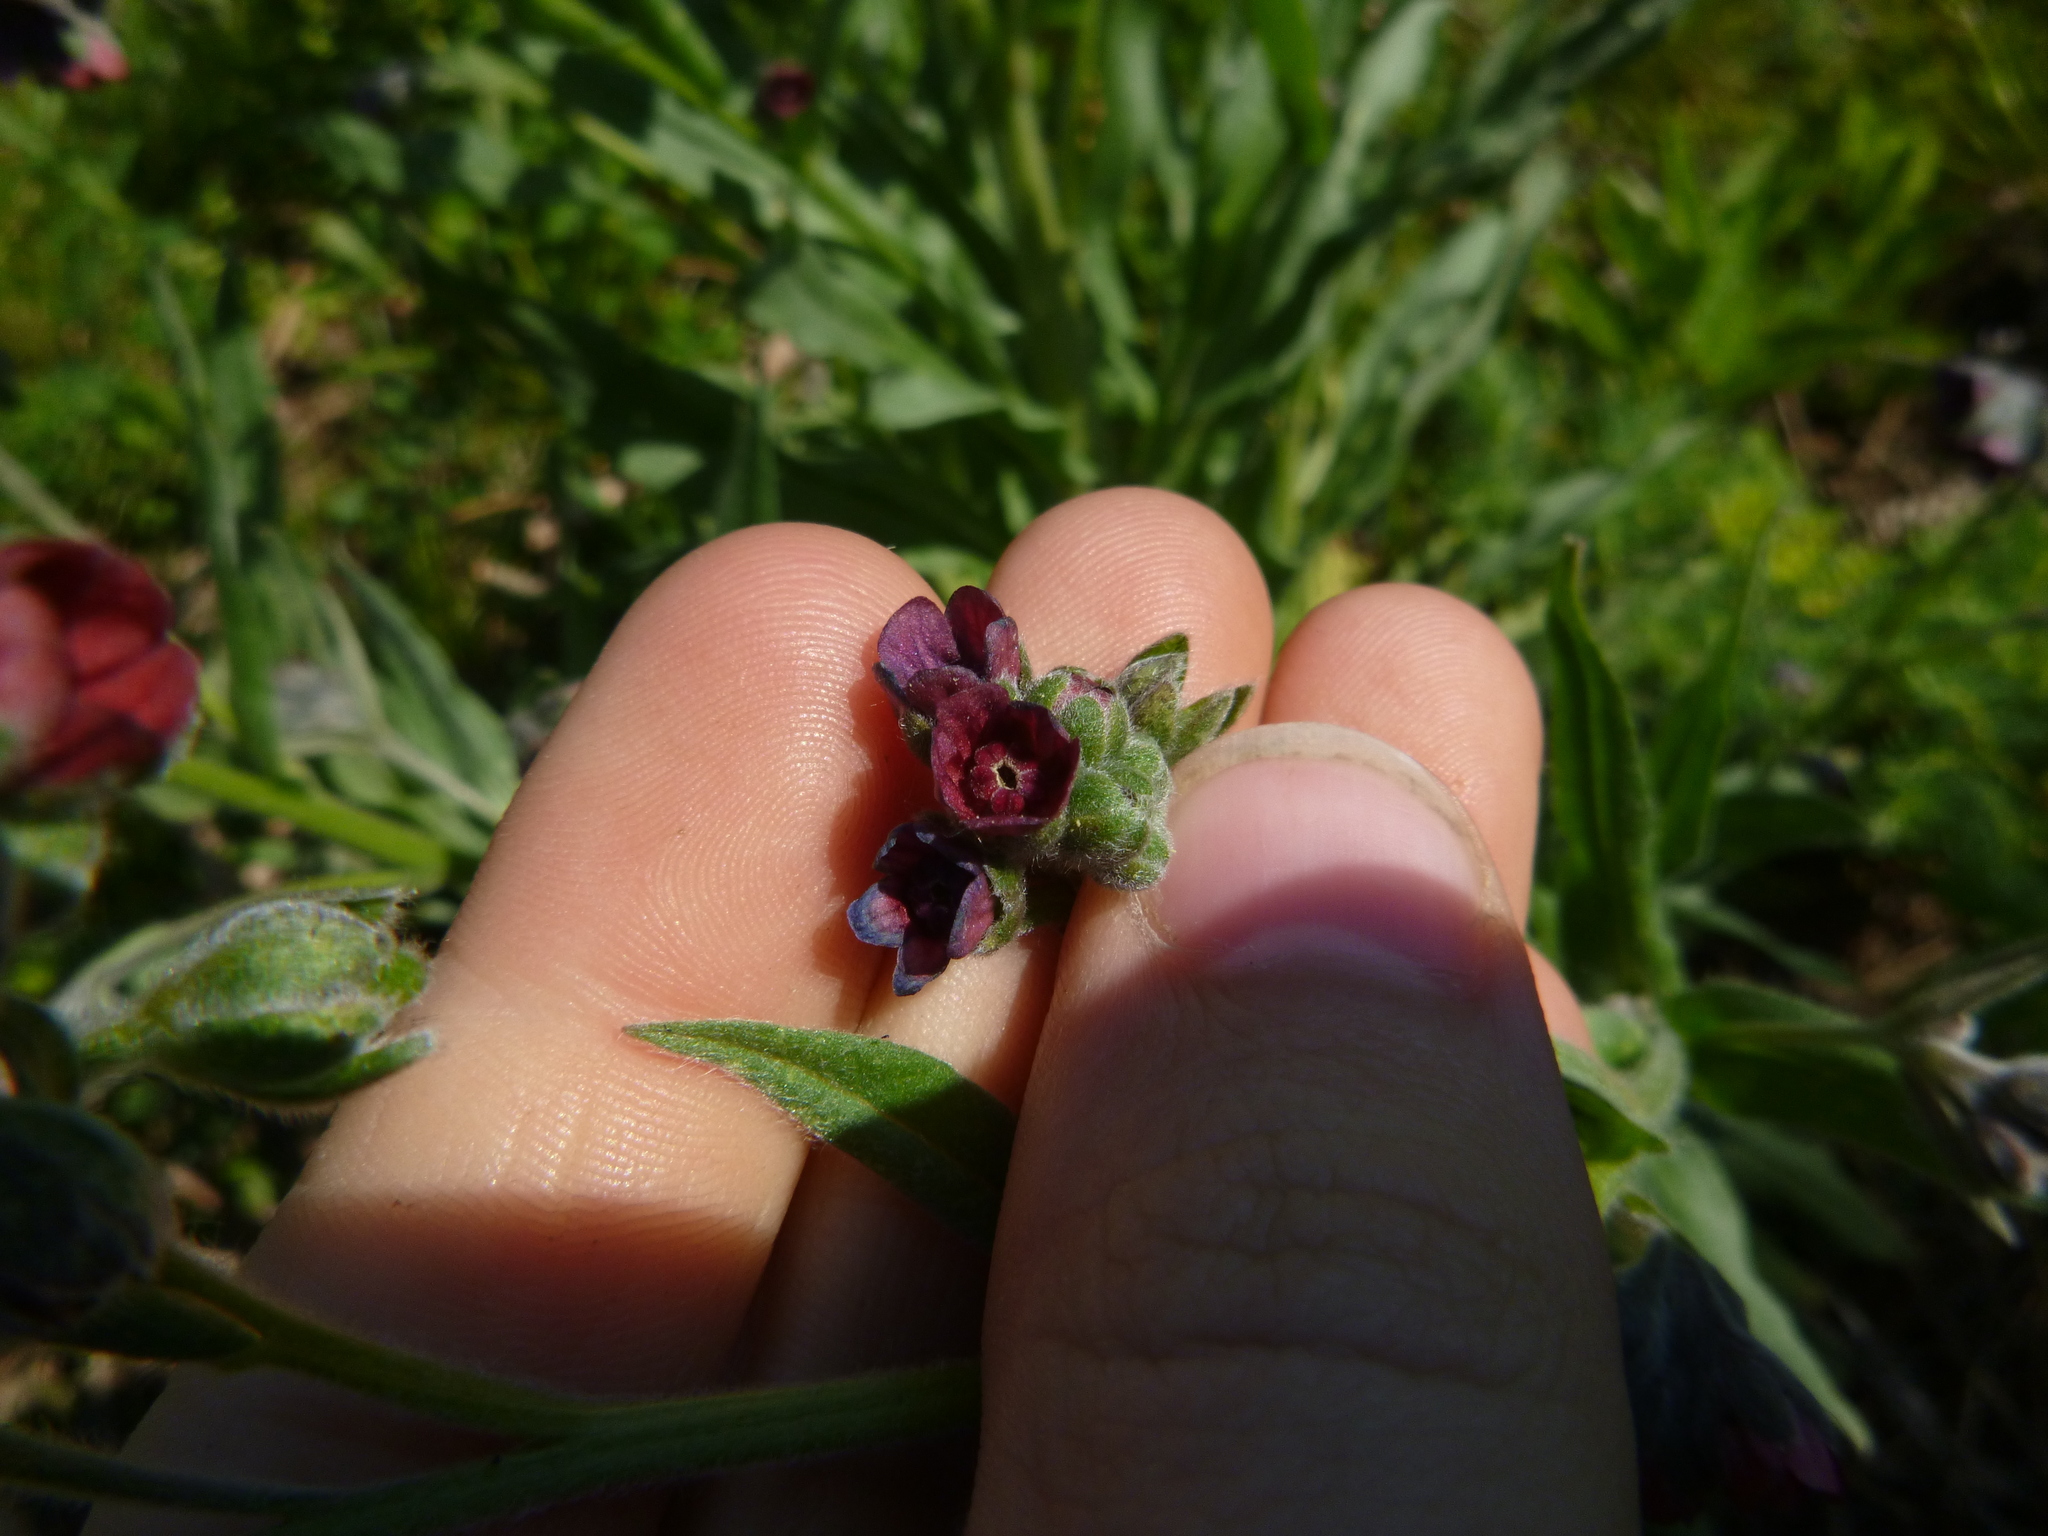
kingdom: Plantae
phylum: Tracheophyta
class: Magnoliopsida
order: Boraginales
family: Boraginaceae
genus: Cynoglossum
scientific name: Cynoglossum officinale
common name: Hound's-tongue
